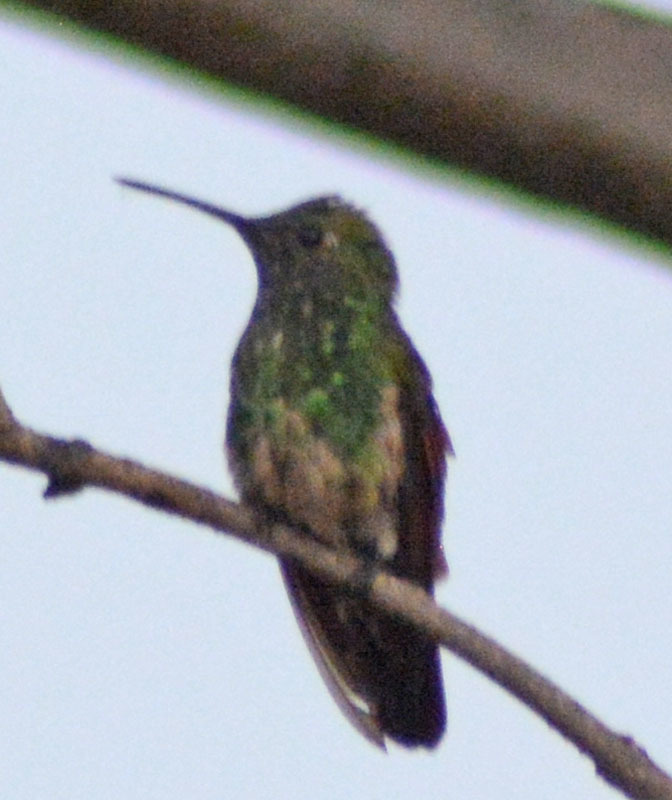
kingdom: Animalia
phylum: Chordata
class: Aves
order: Apodiformes
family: Trochilidae
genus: Saucerottia
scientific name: Saucerottia beryllina
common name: Berylline hummingbird
